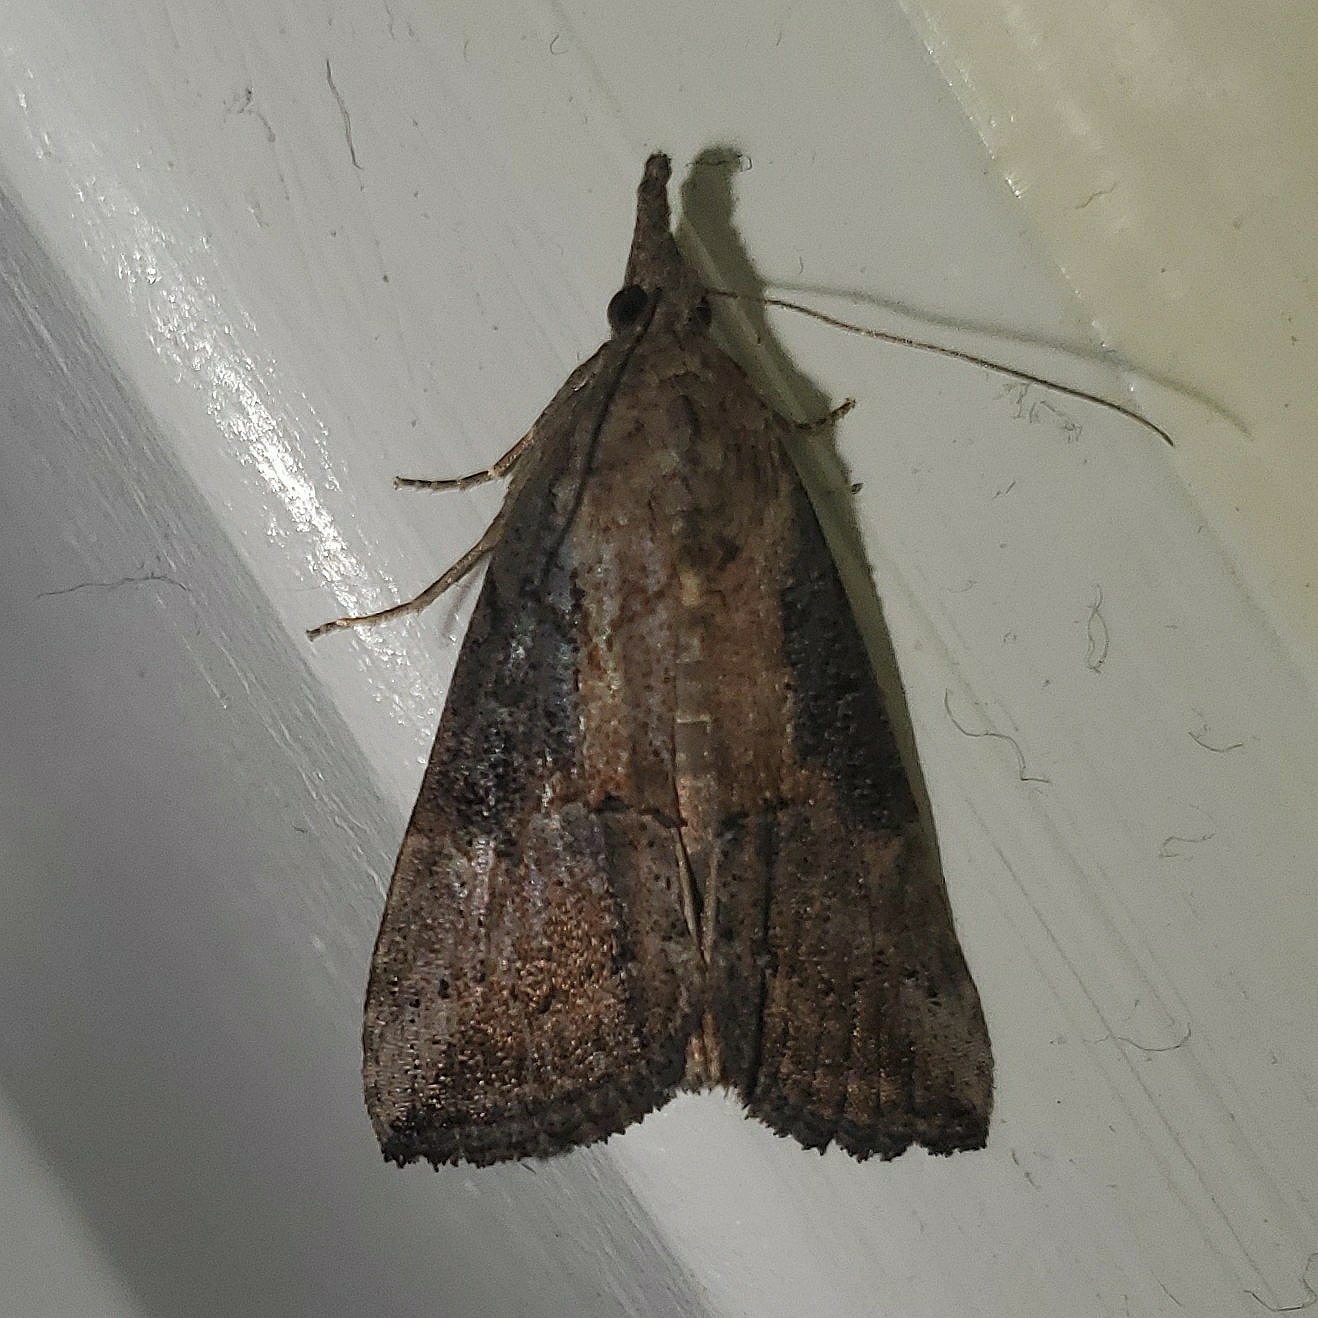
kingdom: Animalia
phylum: Arthropoda
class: Insecta
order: Lepidoptera
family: Erebidae
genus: Hypena
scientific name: Hypena scabra
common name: Green cloverworm
